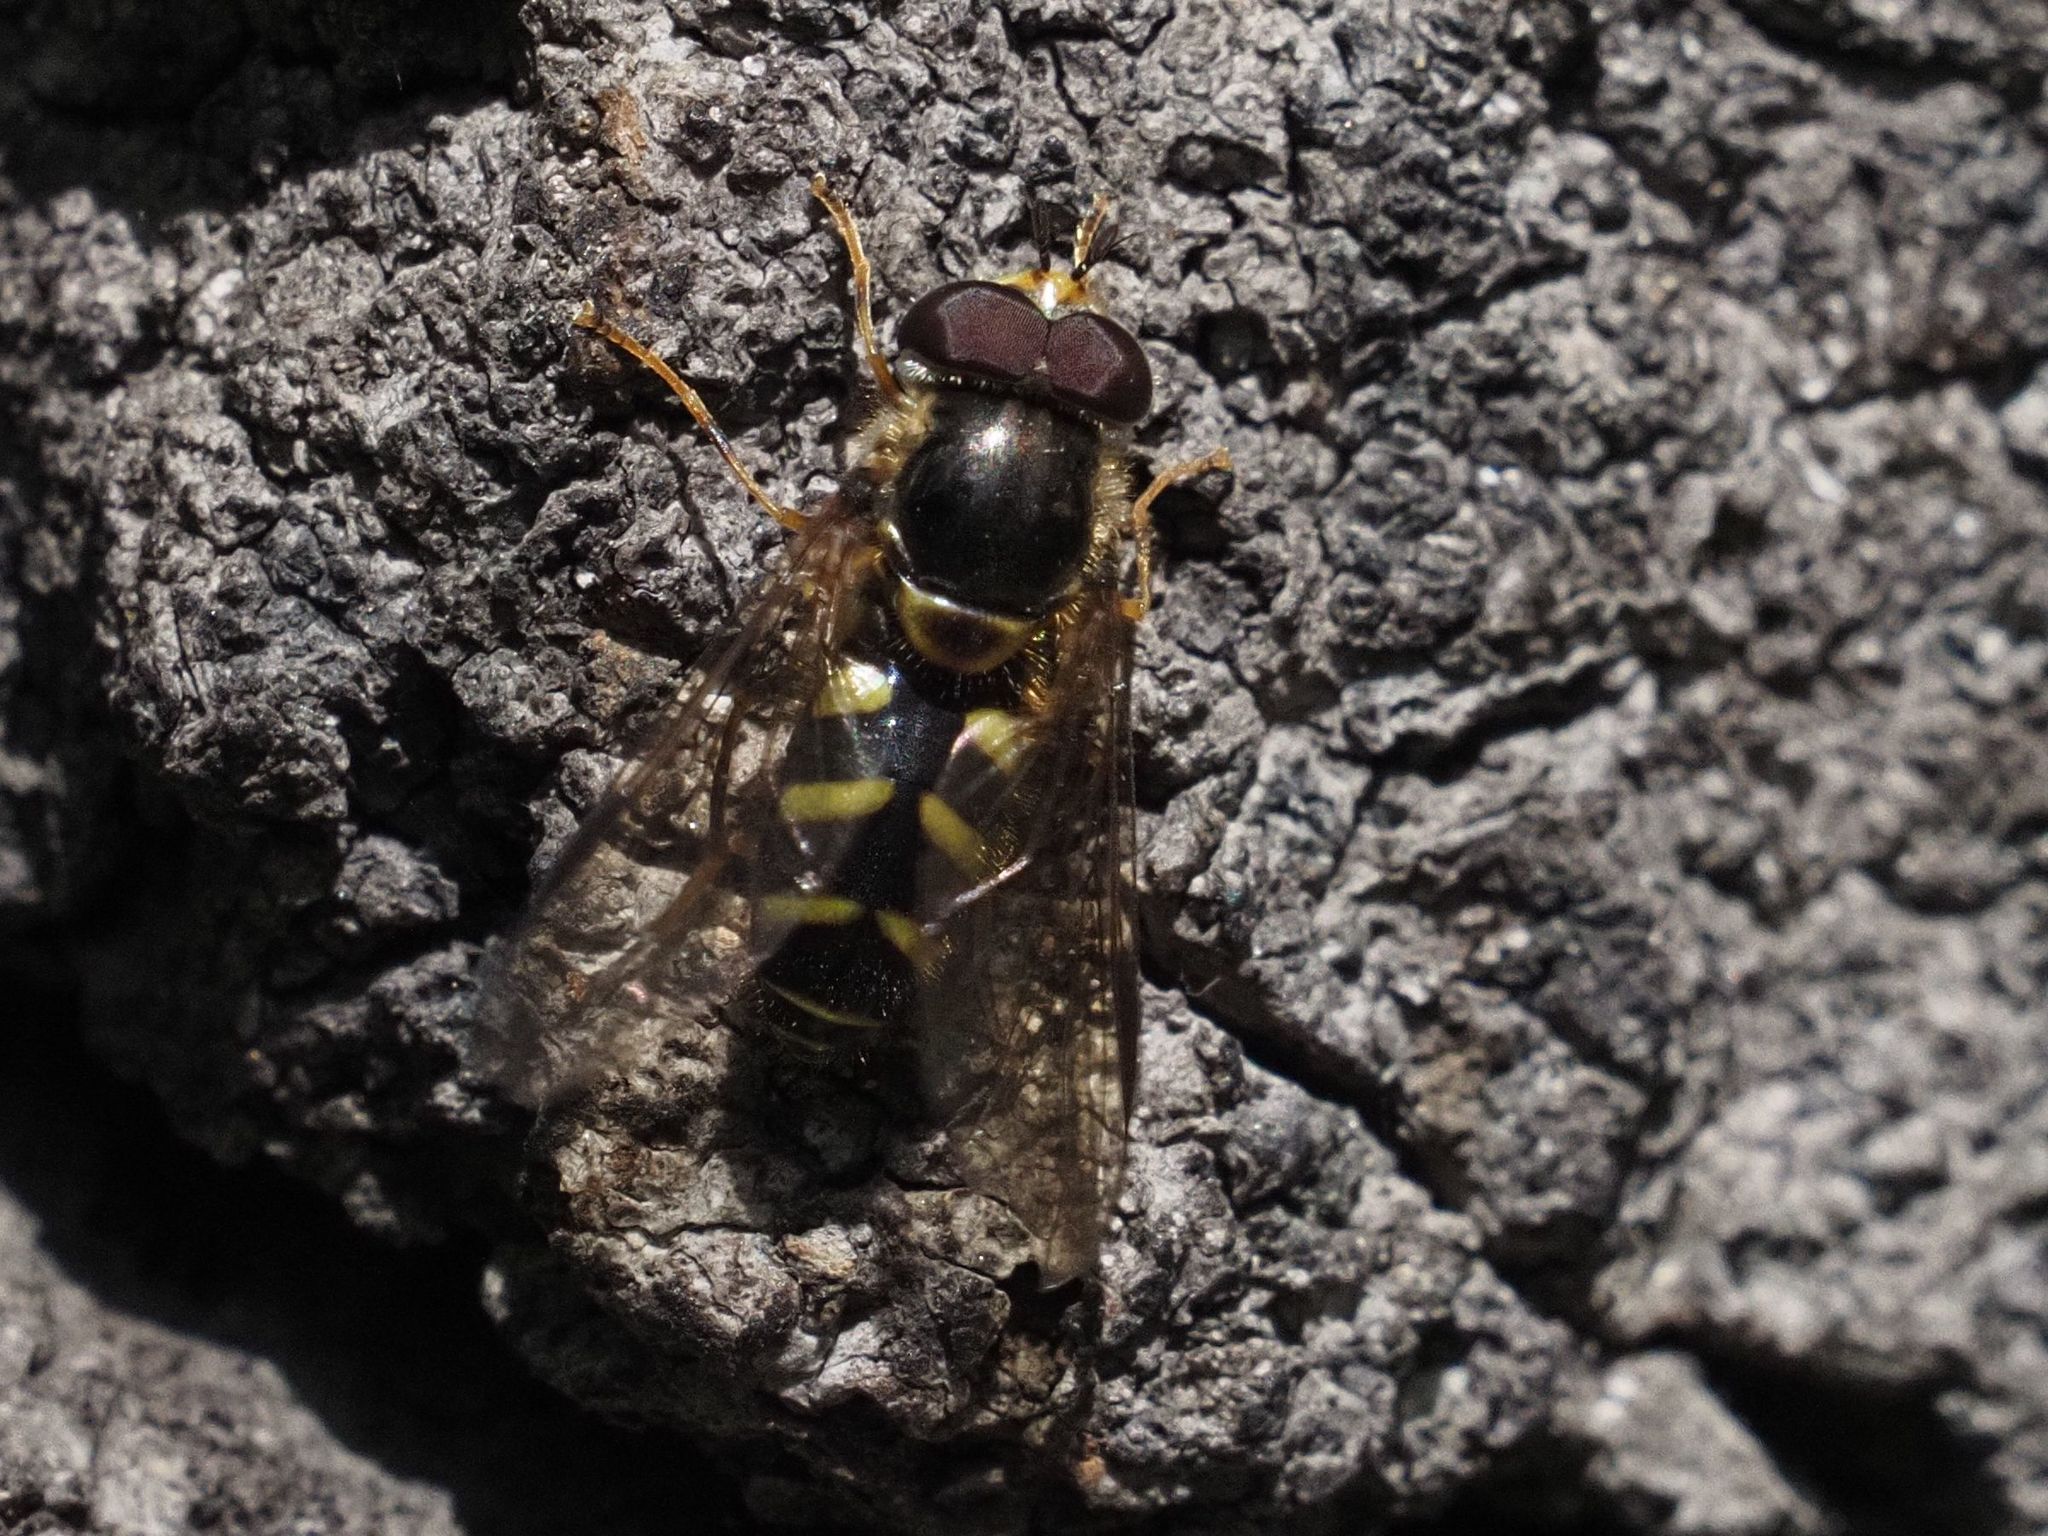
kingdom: Animalia
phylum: Arthropoda
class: Insecta
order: Diptera
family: Syrphidae
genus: Dasysyrphus
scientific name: Dasysyrphus albostriatus
